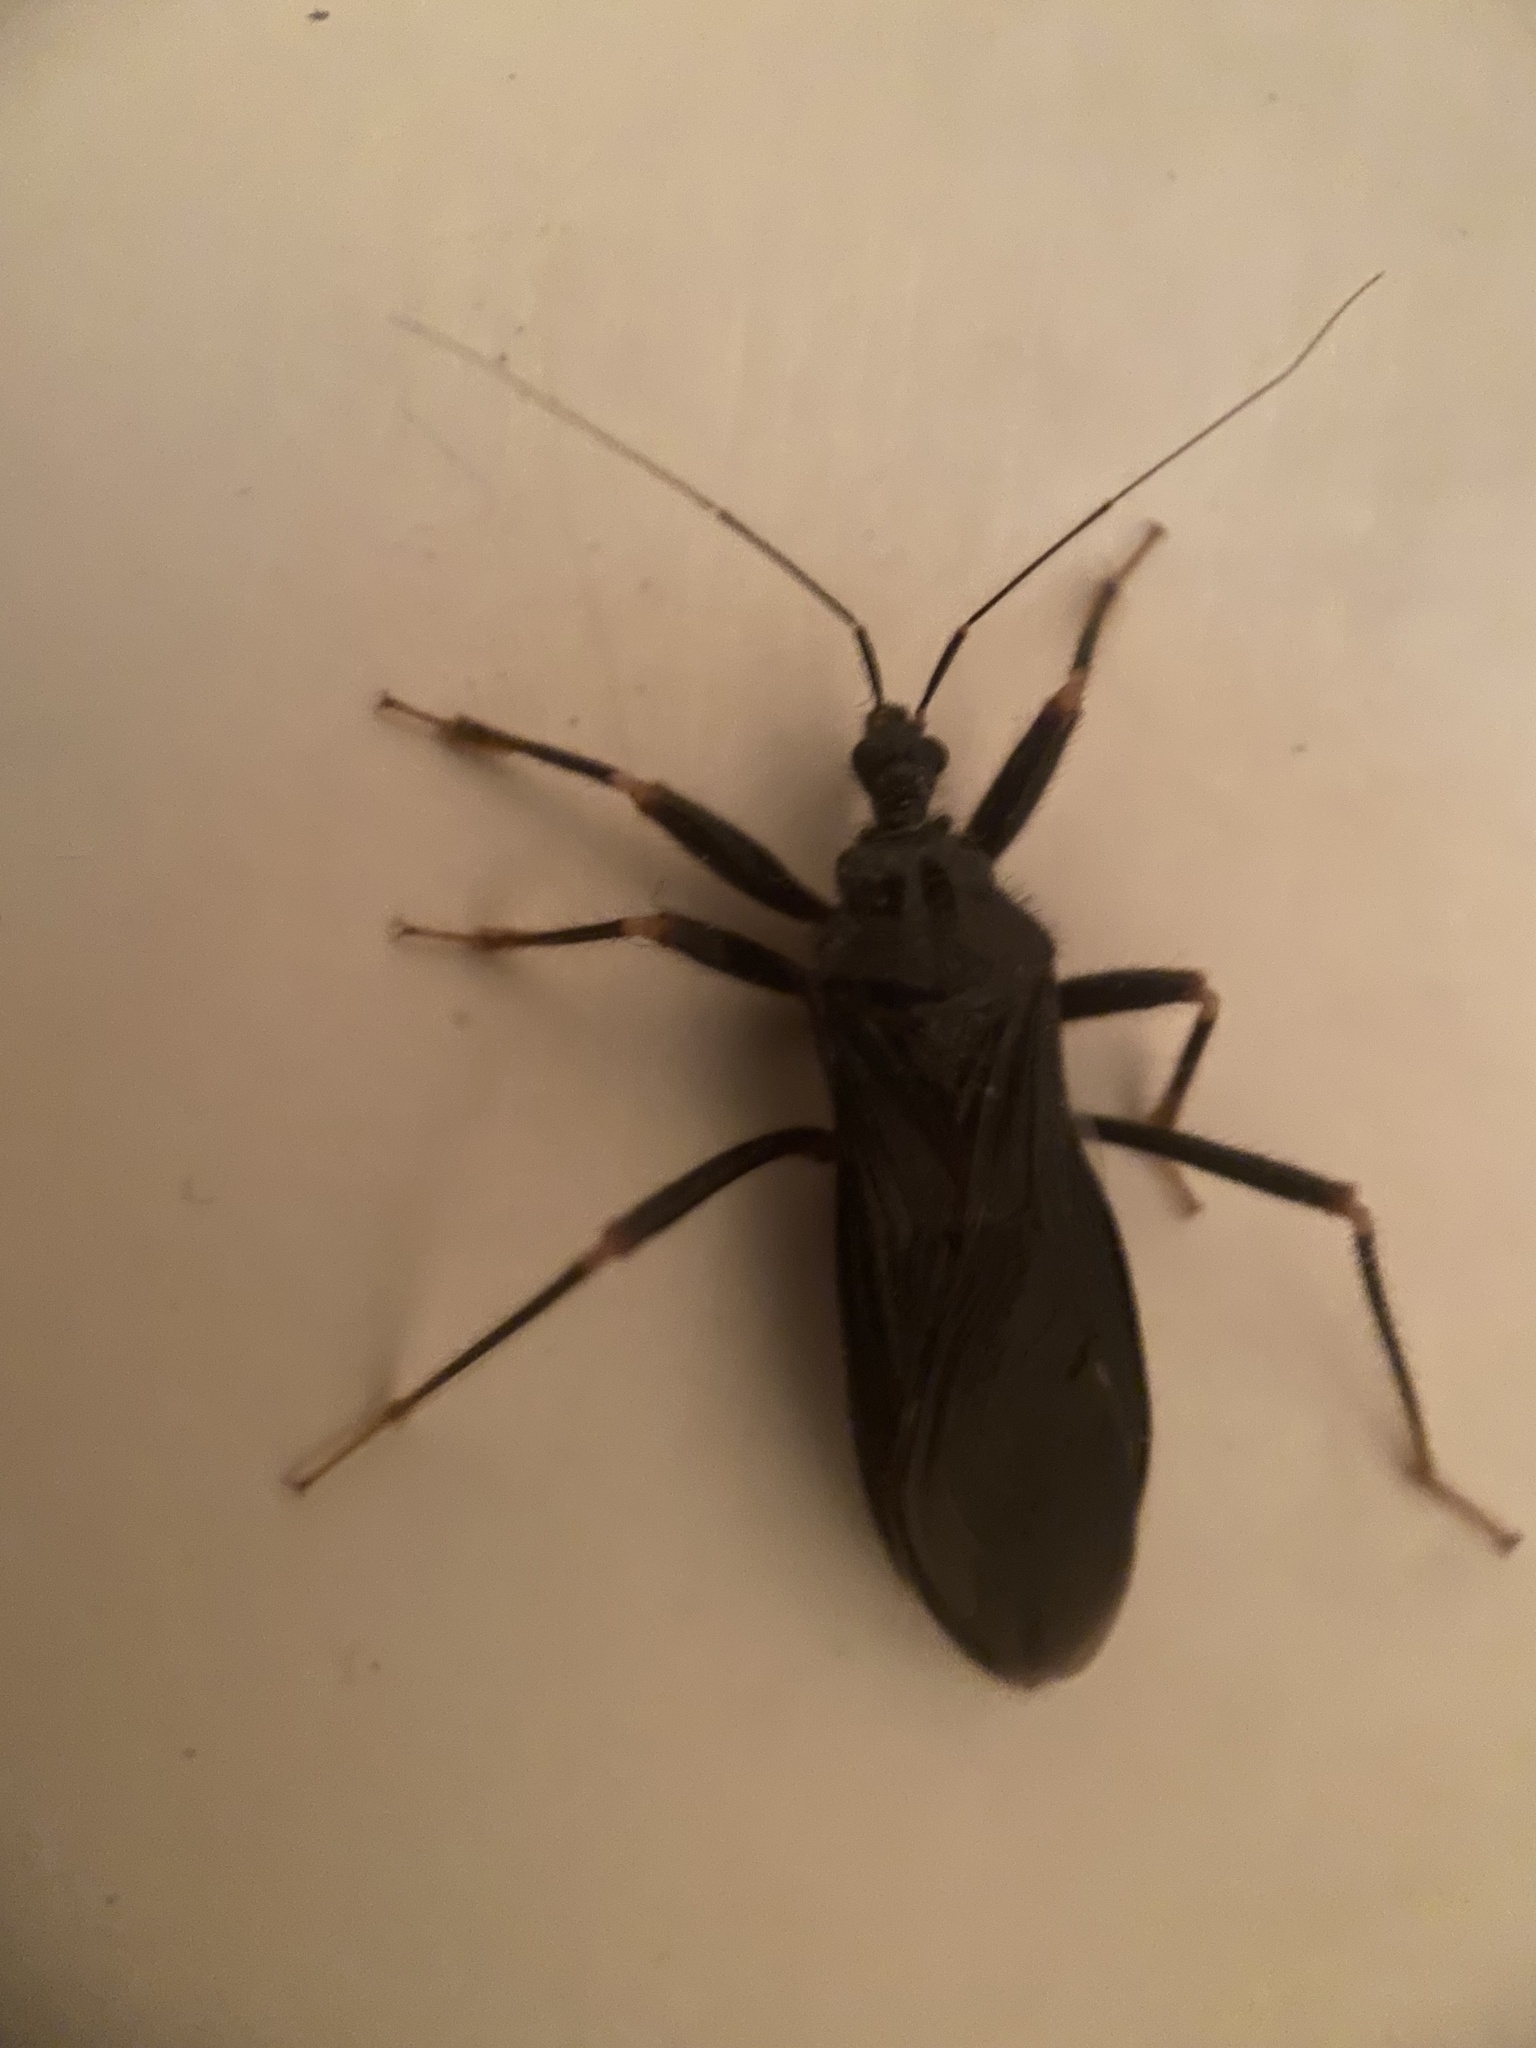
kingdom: Animalia
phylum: Arthropoda
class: Insecta
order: Hemiptera
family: Reduviidae
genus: Reduvius
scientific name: Reduvius personatus
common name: Masked hunter
